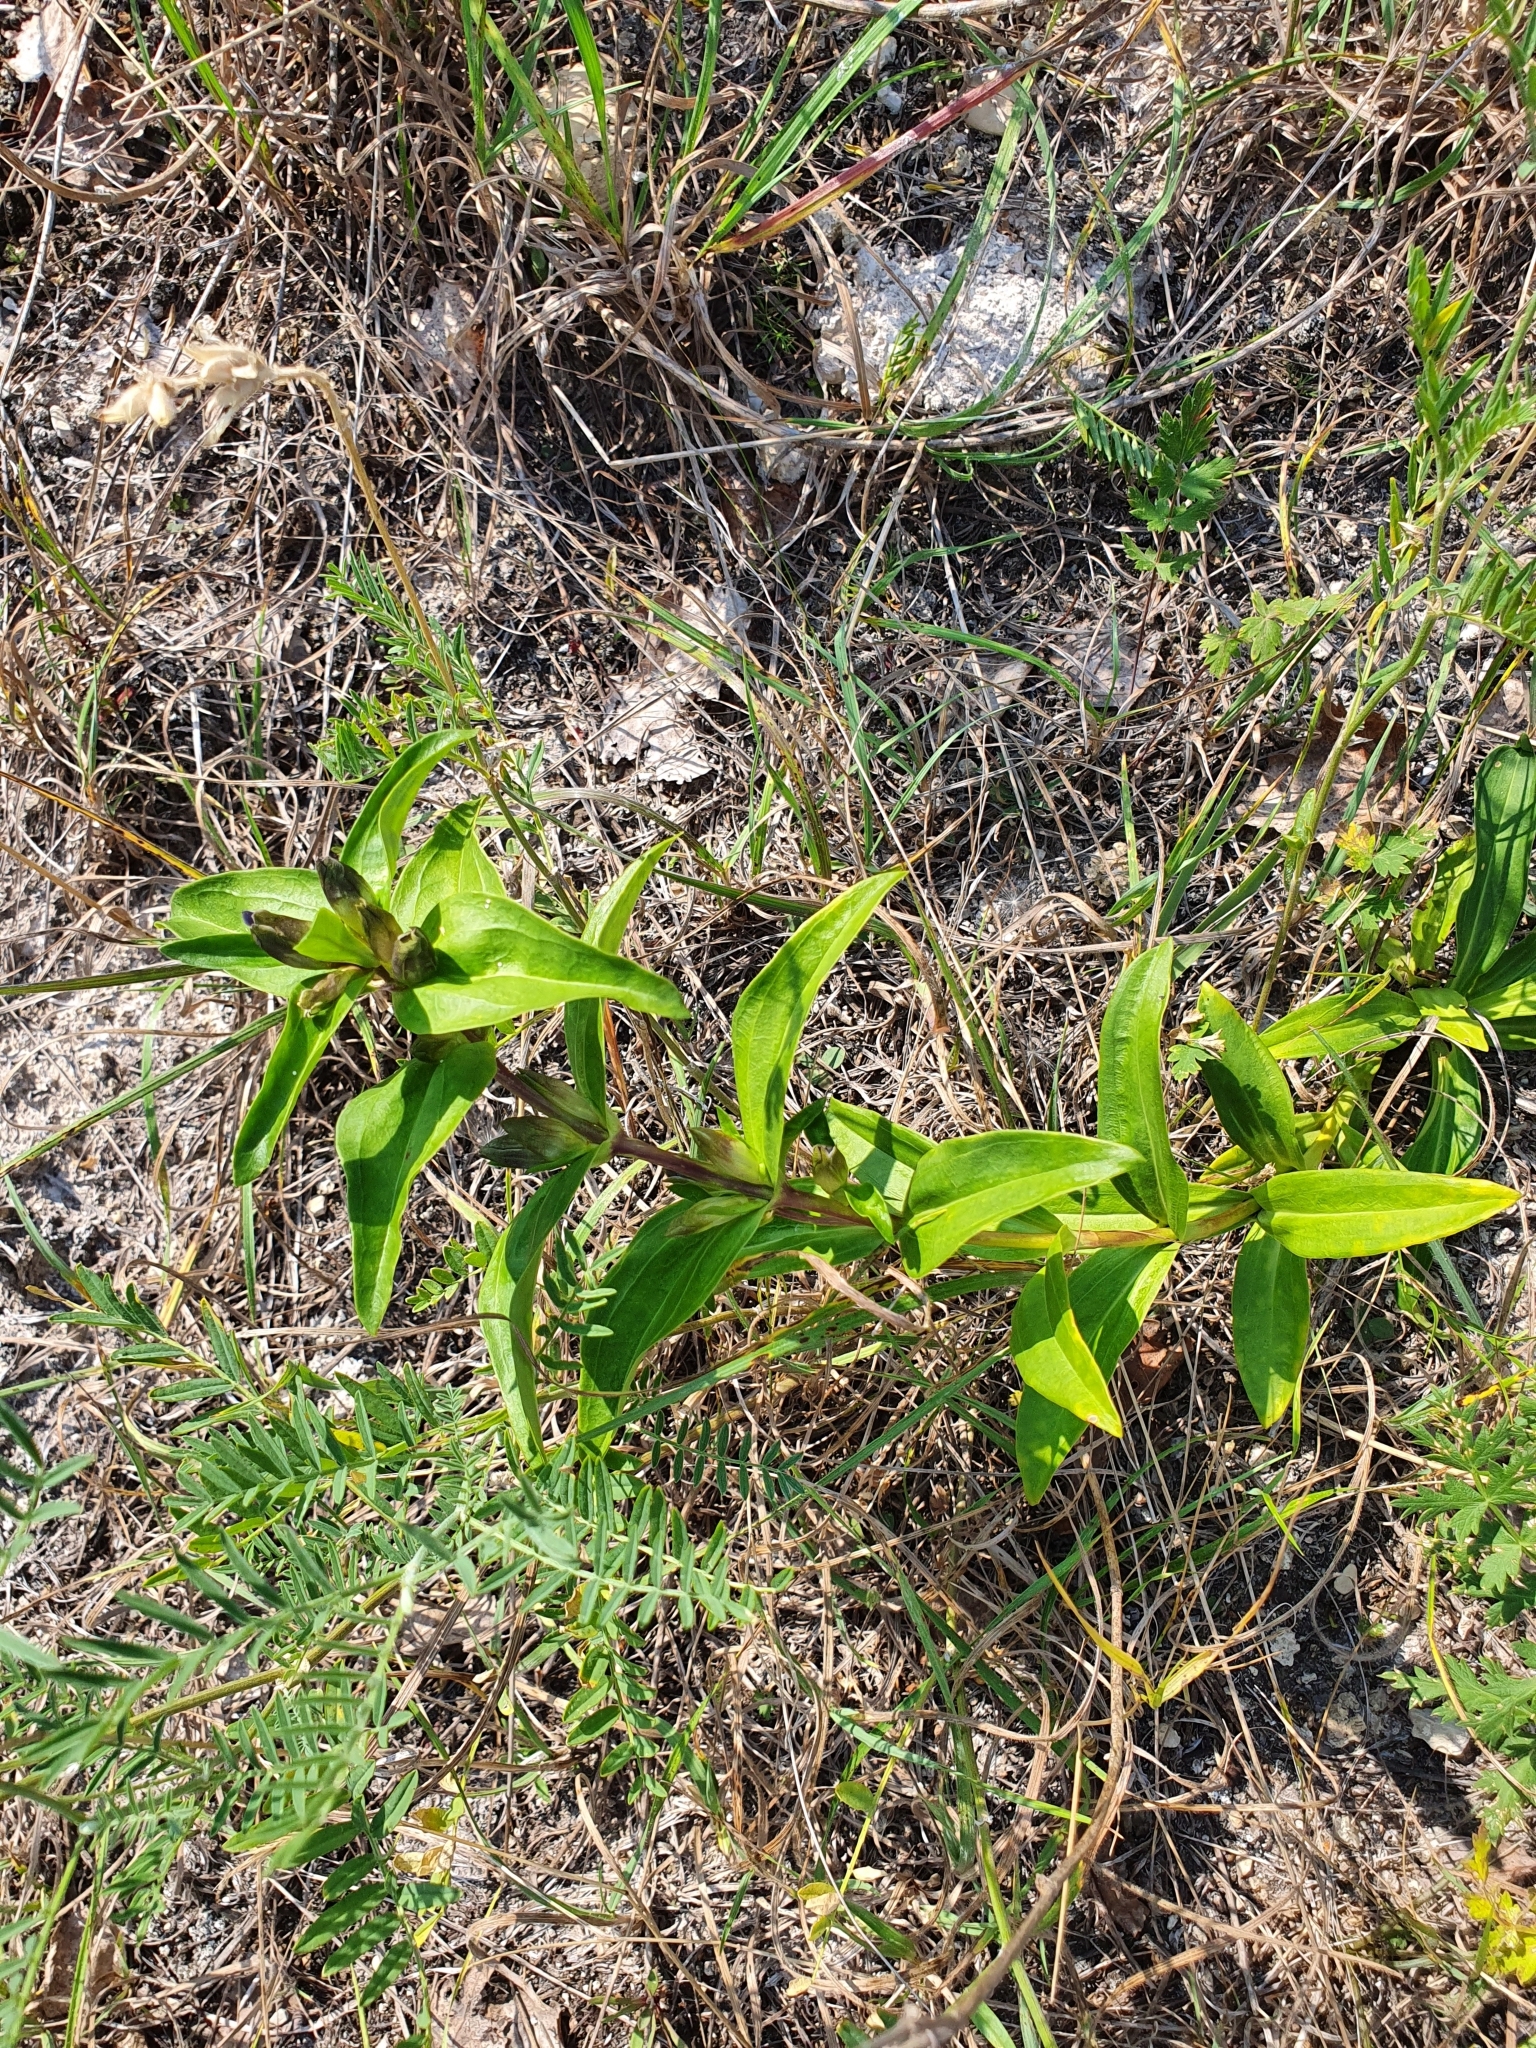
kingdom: Plantae
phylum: Tracheophyta
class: Magnoliopsida
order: Gentianales
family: Gentianaceae
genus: Gentiana
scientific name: Gentiana cruciata
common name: Cross gentian
